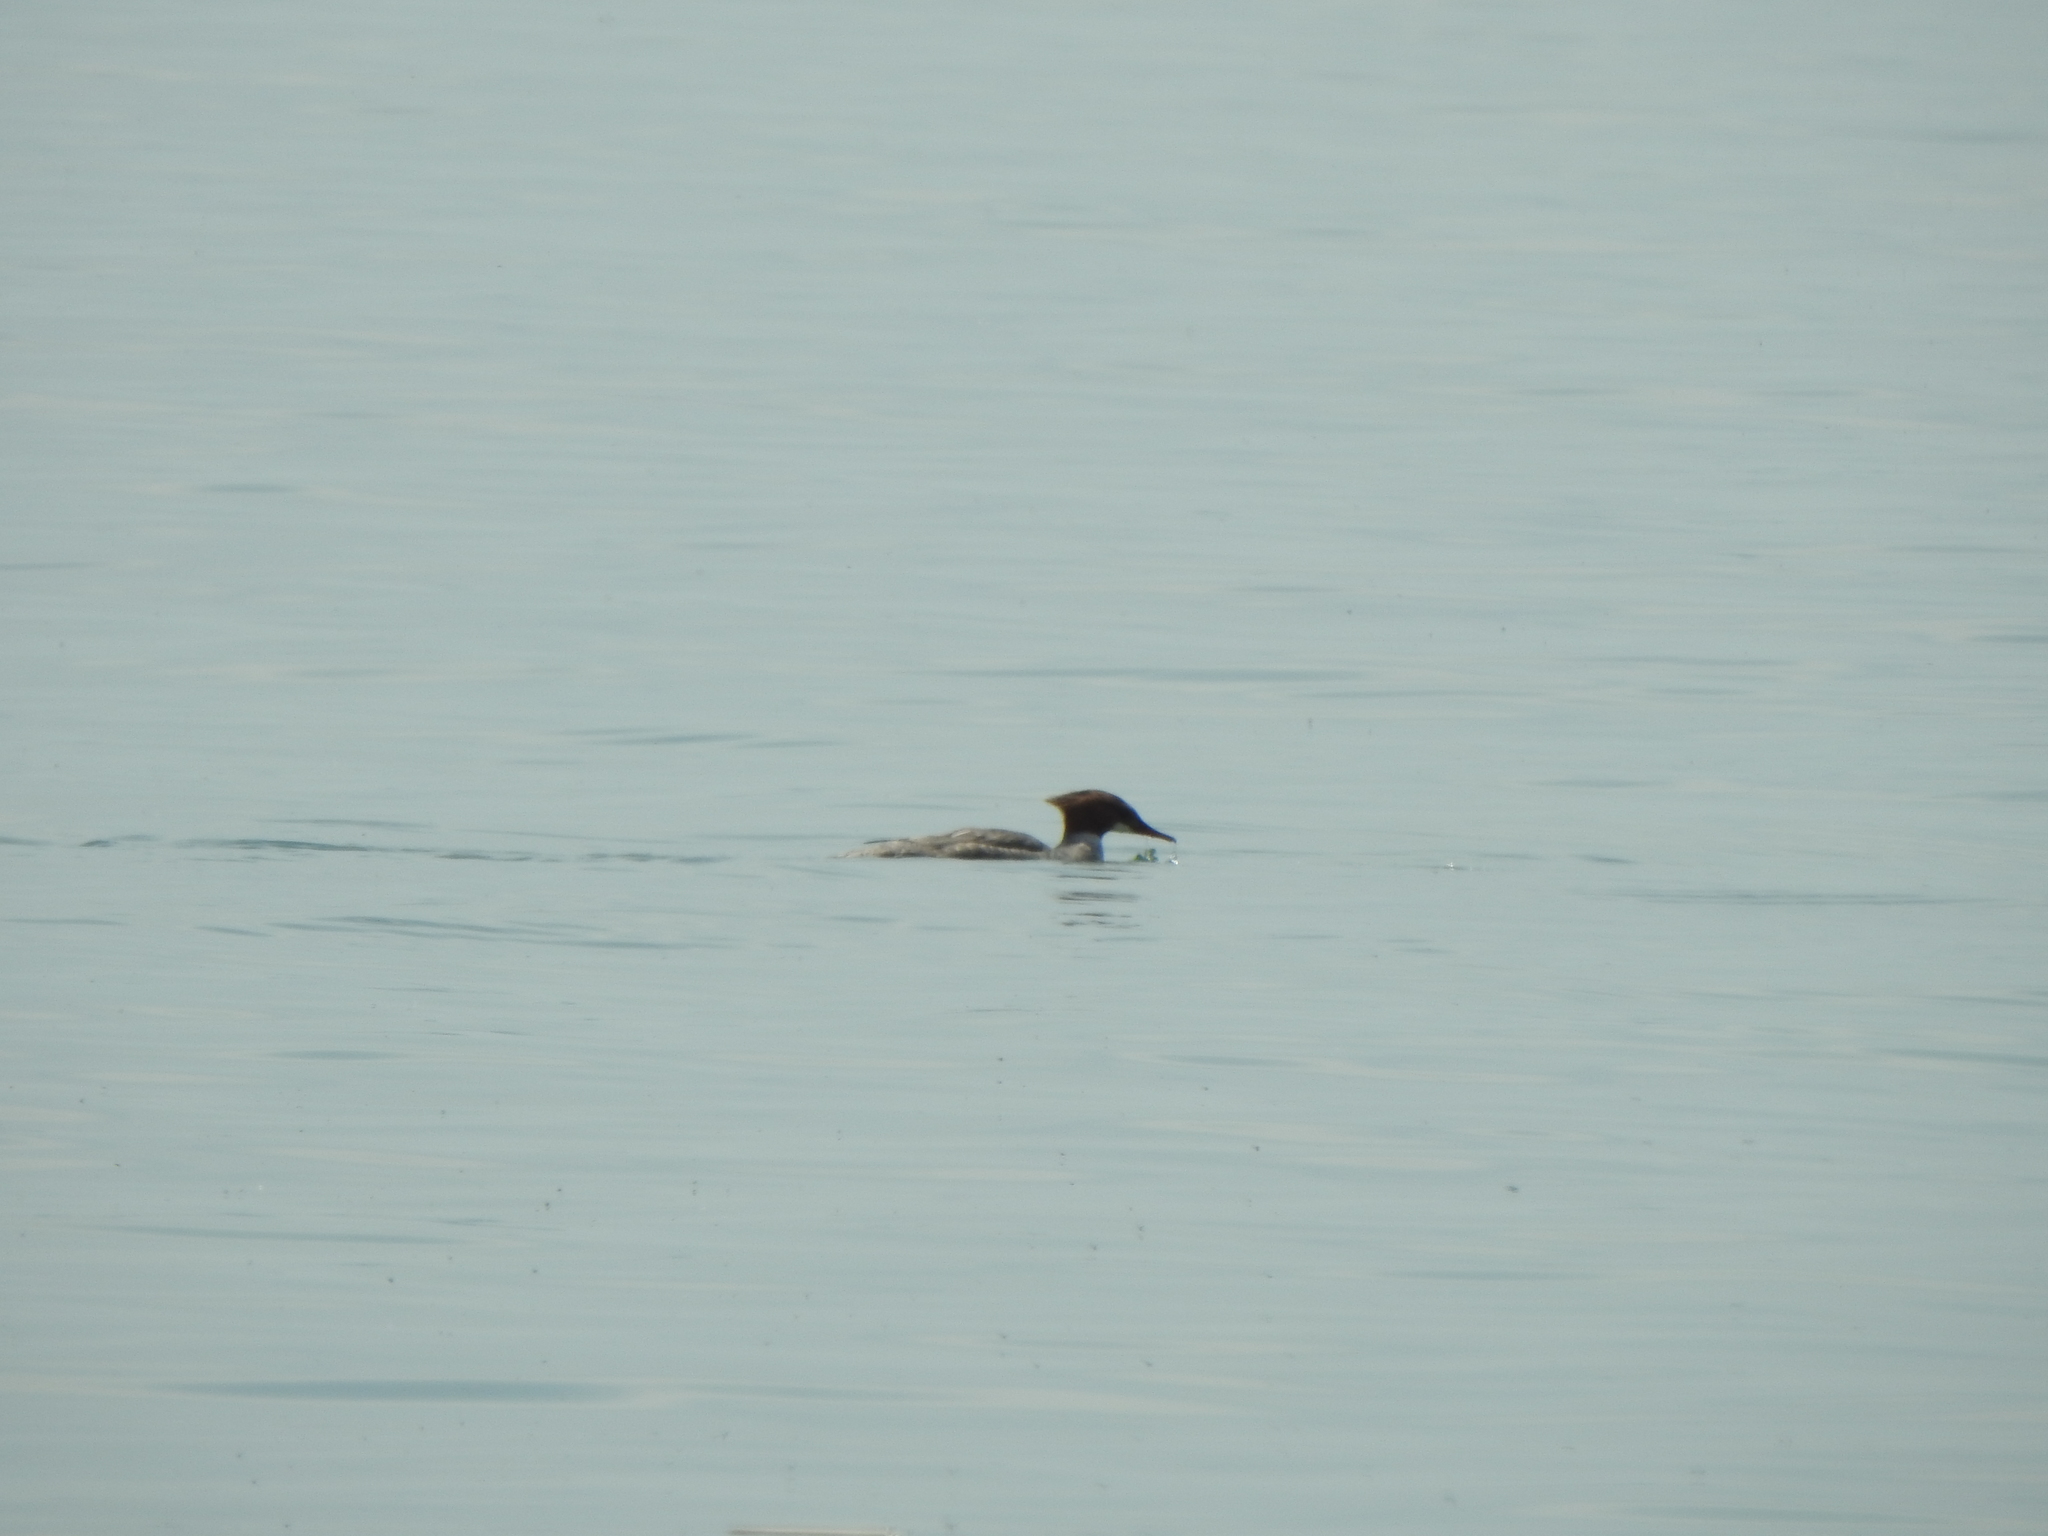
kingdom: Animalia
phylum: Chordata
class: Aves
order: Anseriformes
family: Anatidae
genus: Mergus
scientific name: Mergus merganser
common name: Common merganser
